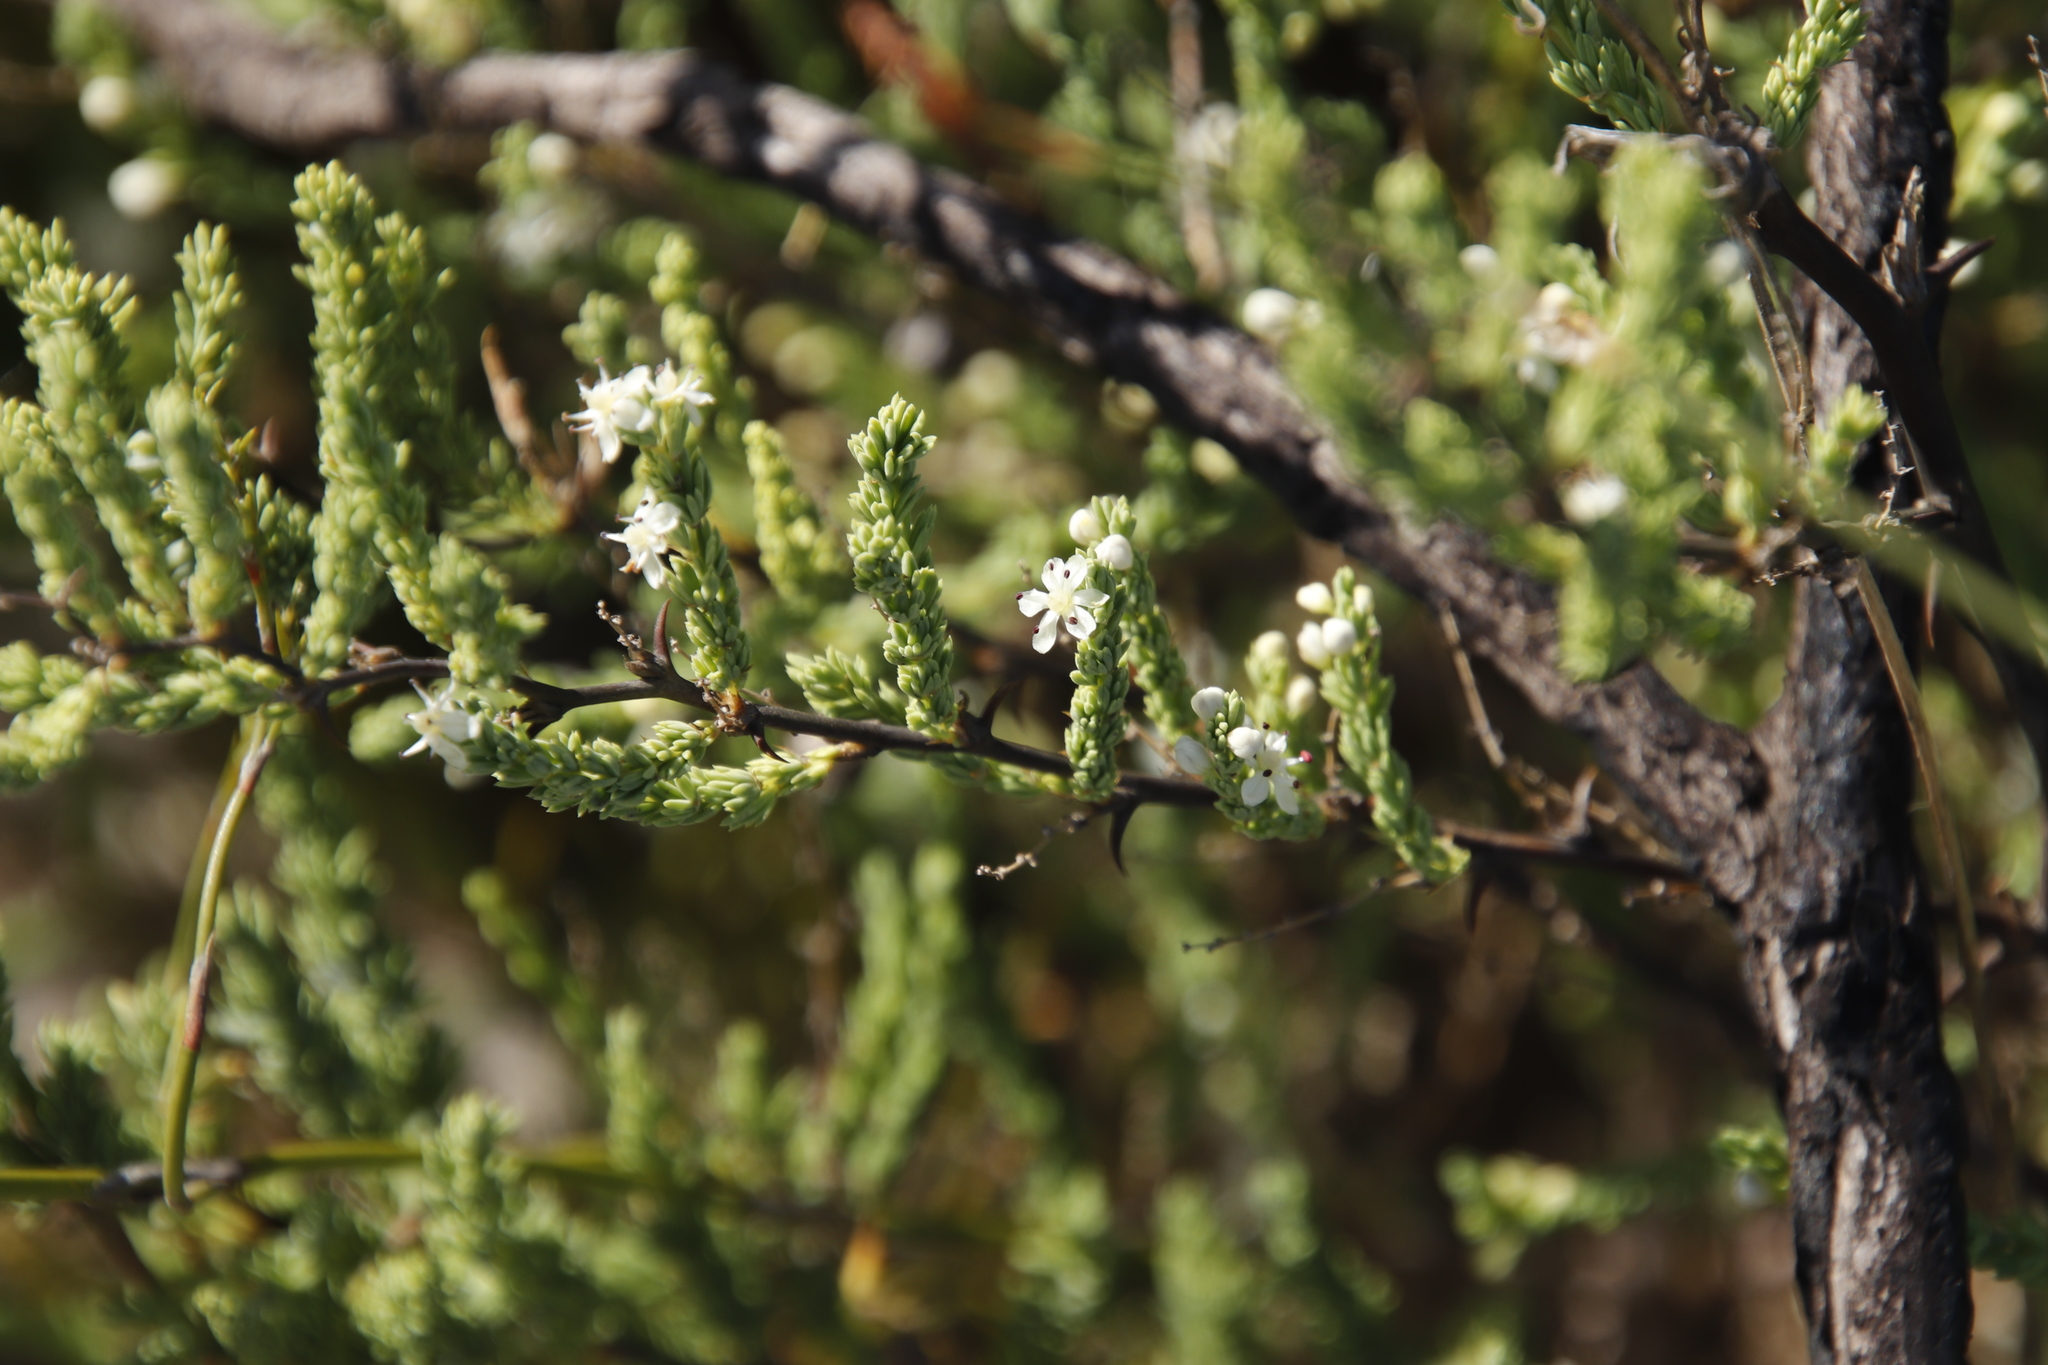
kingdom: Plantae
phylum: Tracheophyta
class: Liliopsida
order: Asparagales
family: Asparagaceae
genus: Asparagus
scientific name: Asparagus rubicundus
